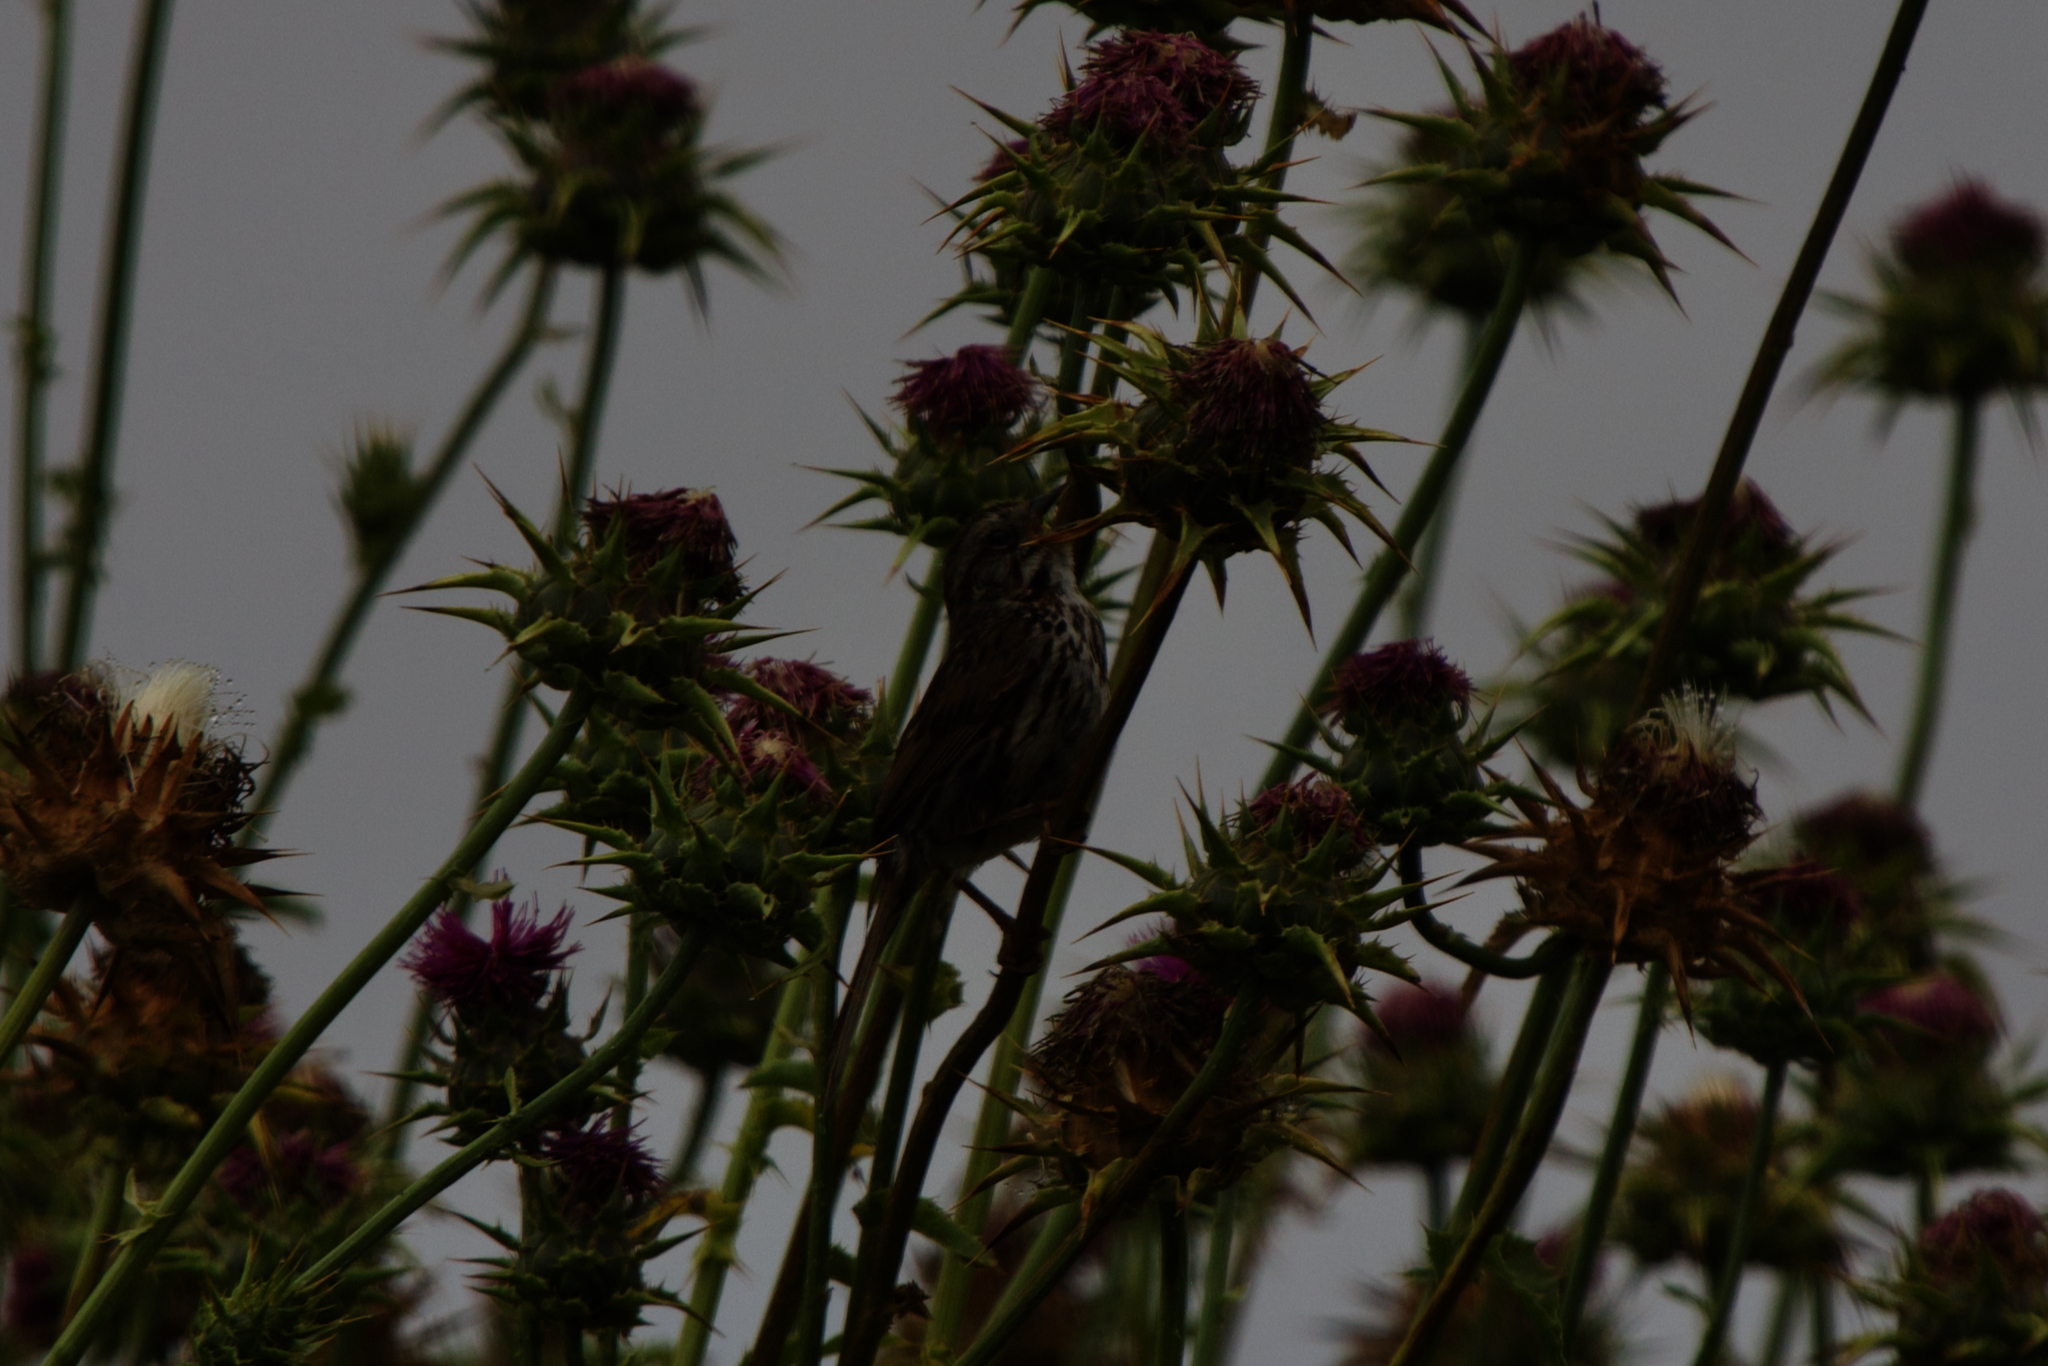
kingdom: Animalia
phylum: Chordata
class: Aves
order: Passeriformes
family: Passerellidae
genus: Melospiza
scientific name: Melospiza melodia
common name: Song sparrow
